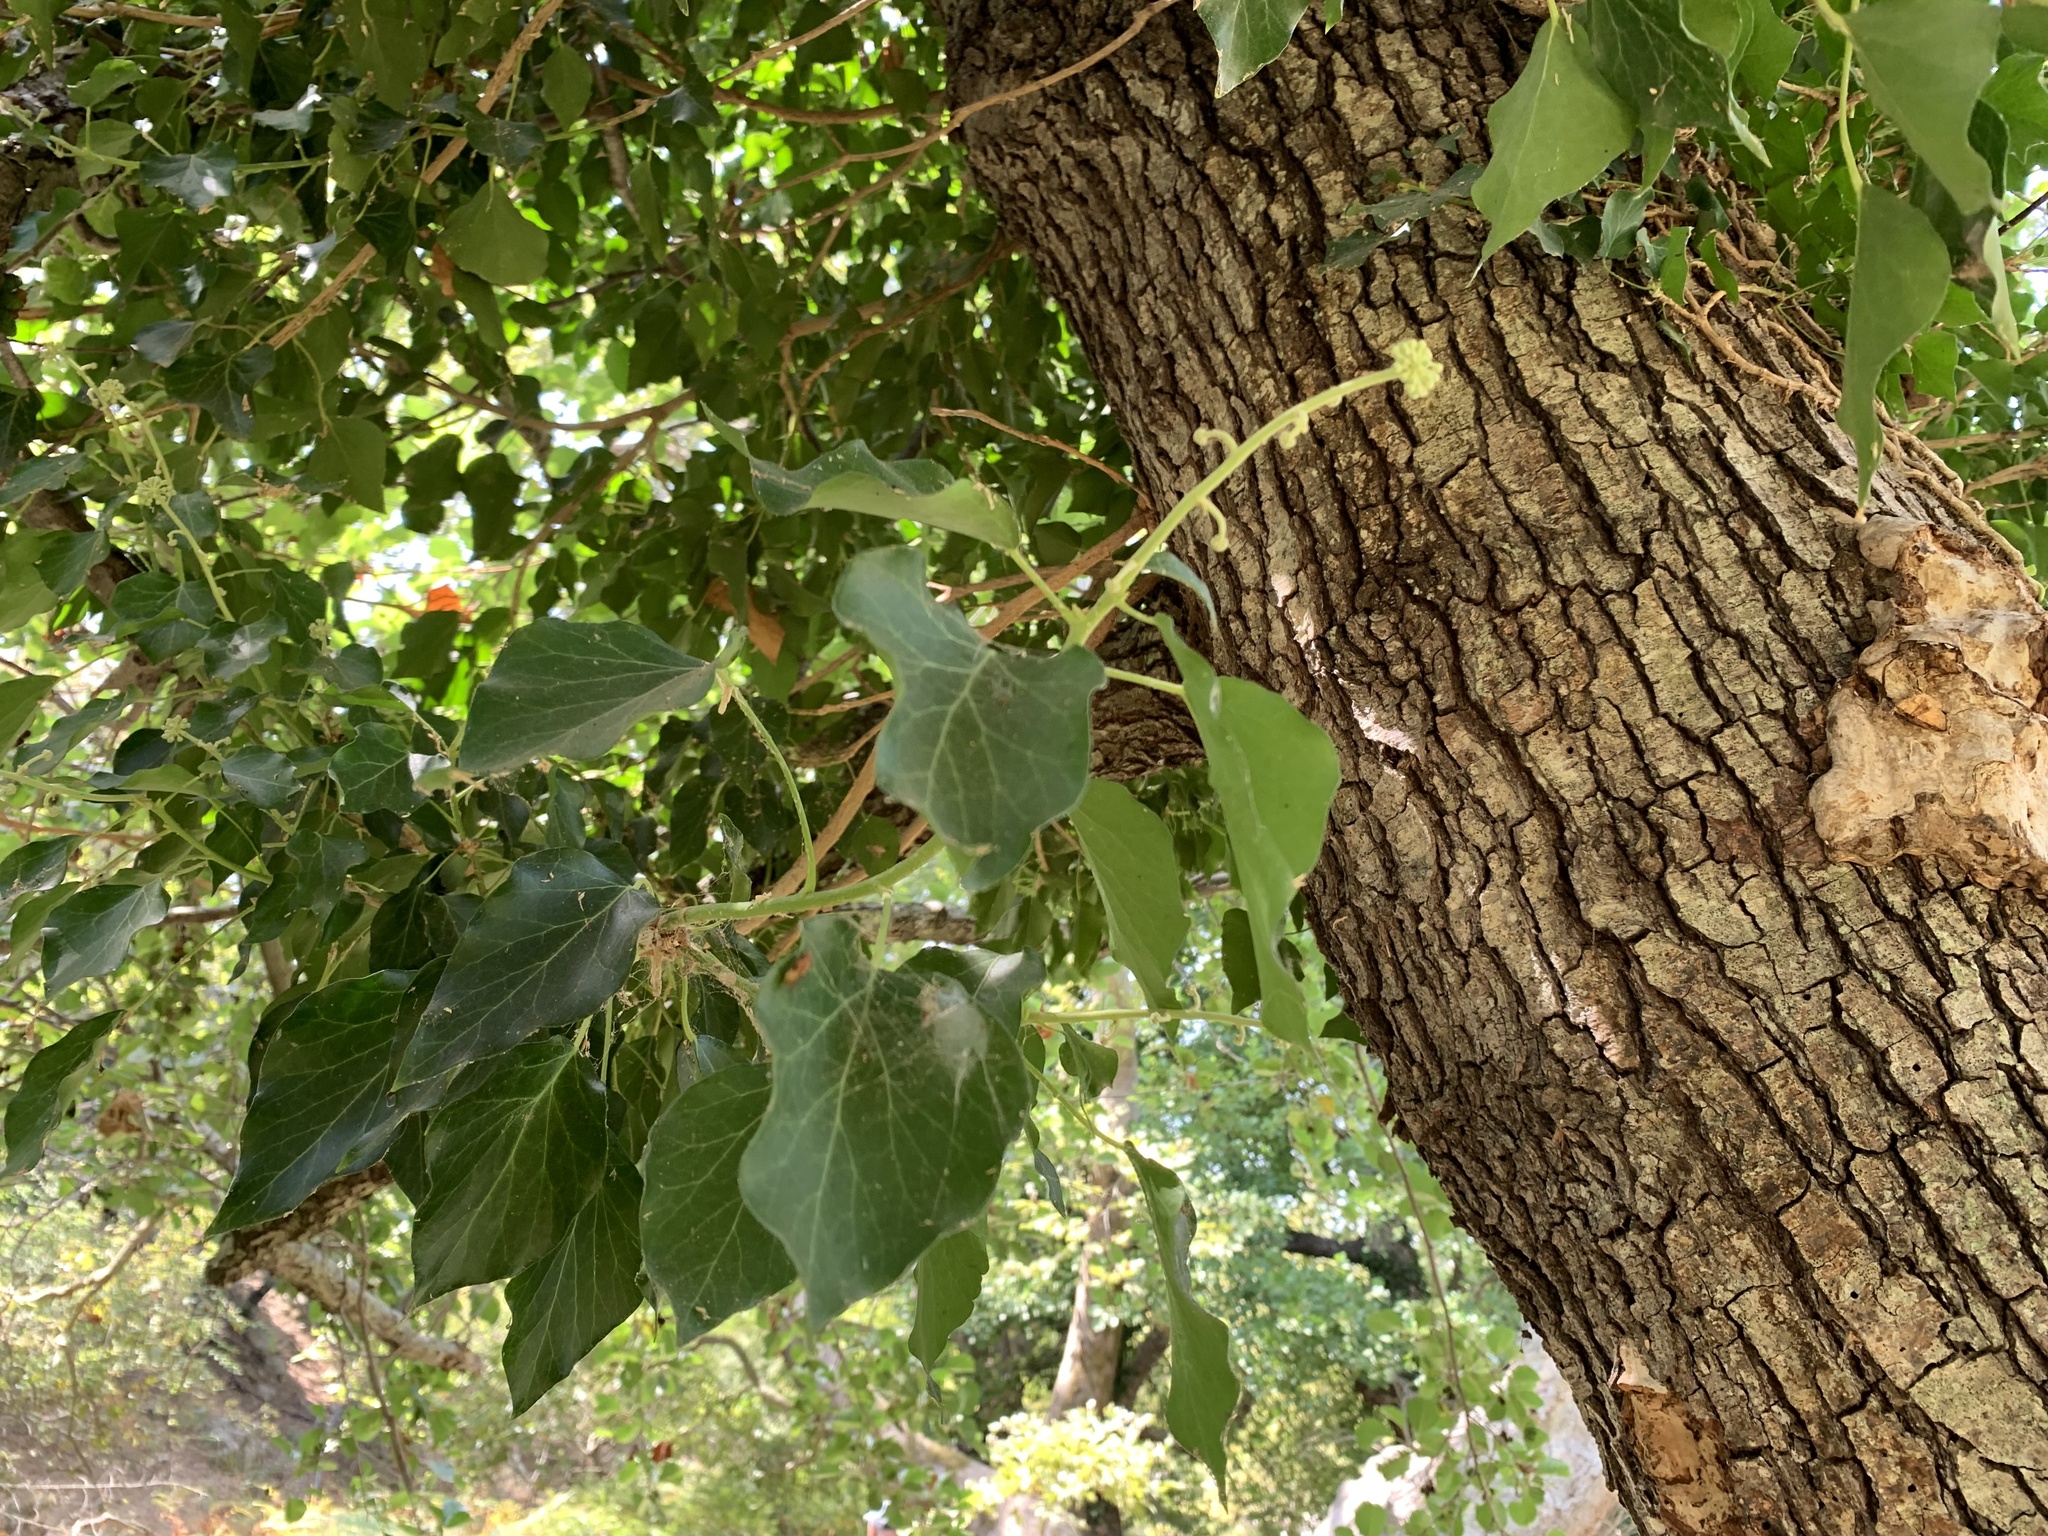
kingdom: Plantae
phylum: Tracheophyta
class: Magnoliopsida
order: Apiales
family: Araliaceae
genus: Hedera
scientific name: Hedera helix
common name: Ivy
